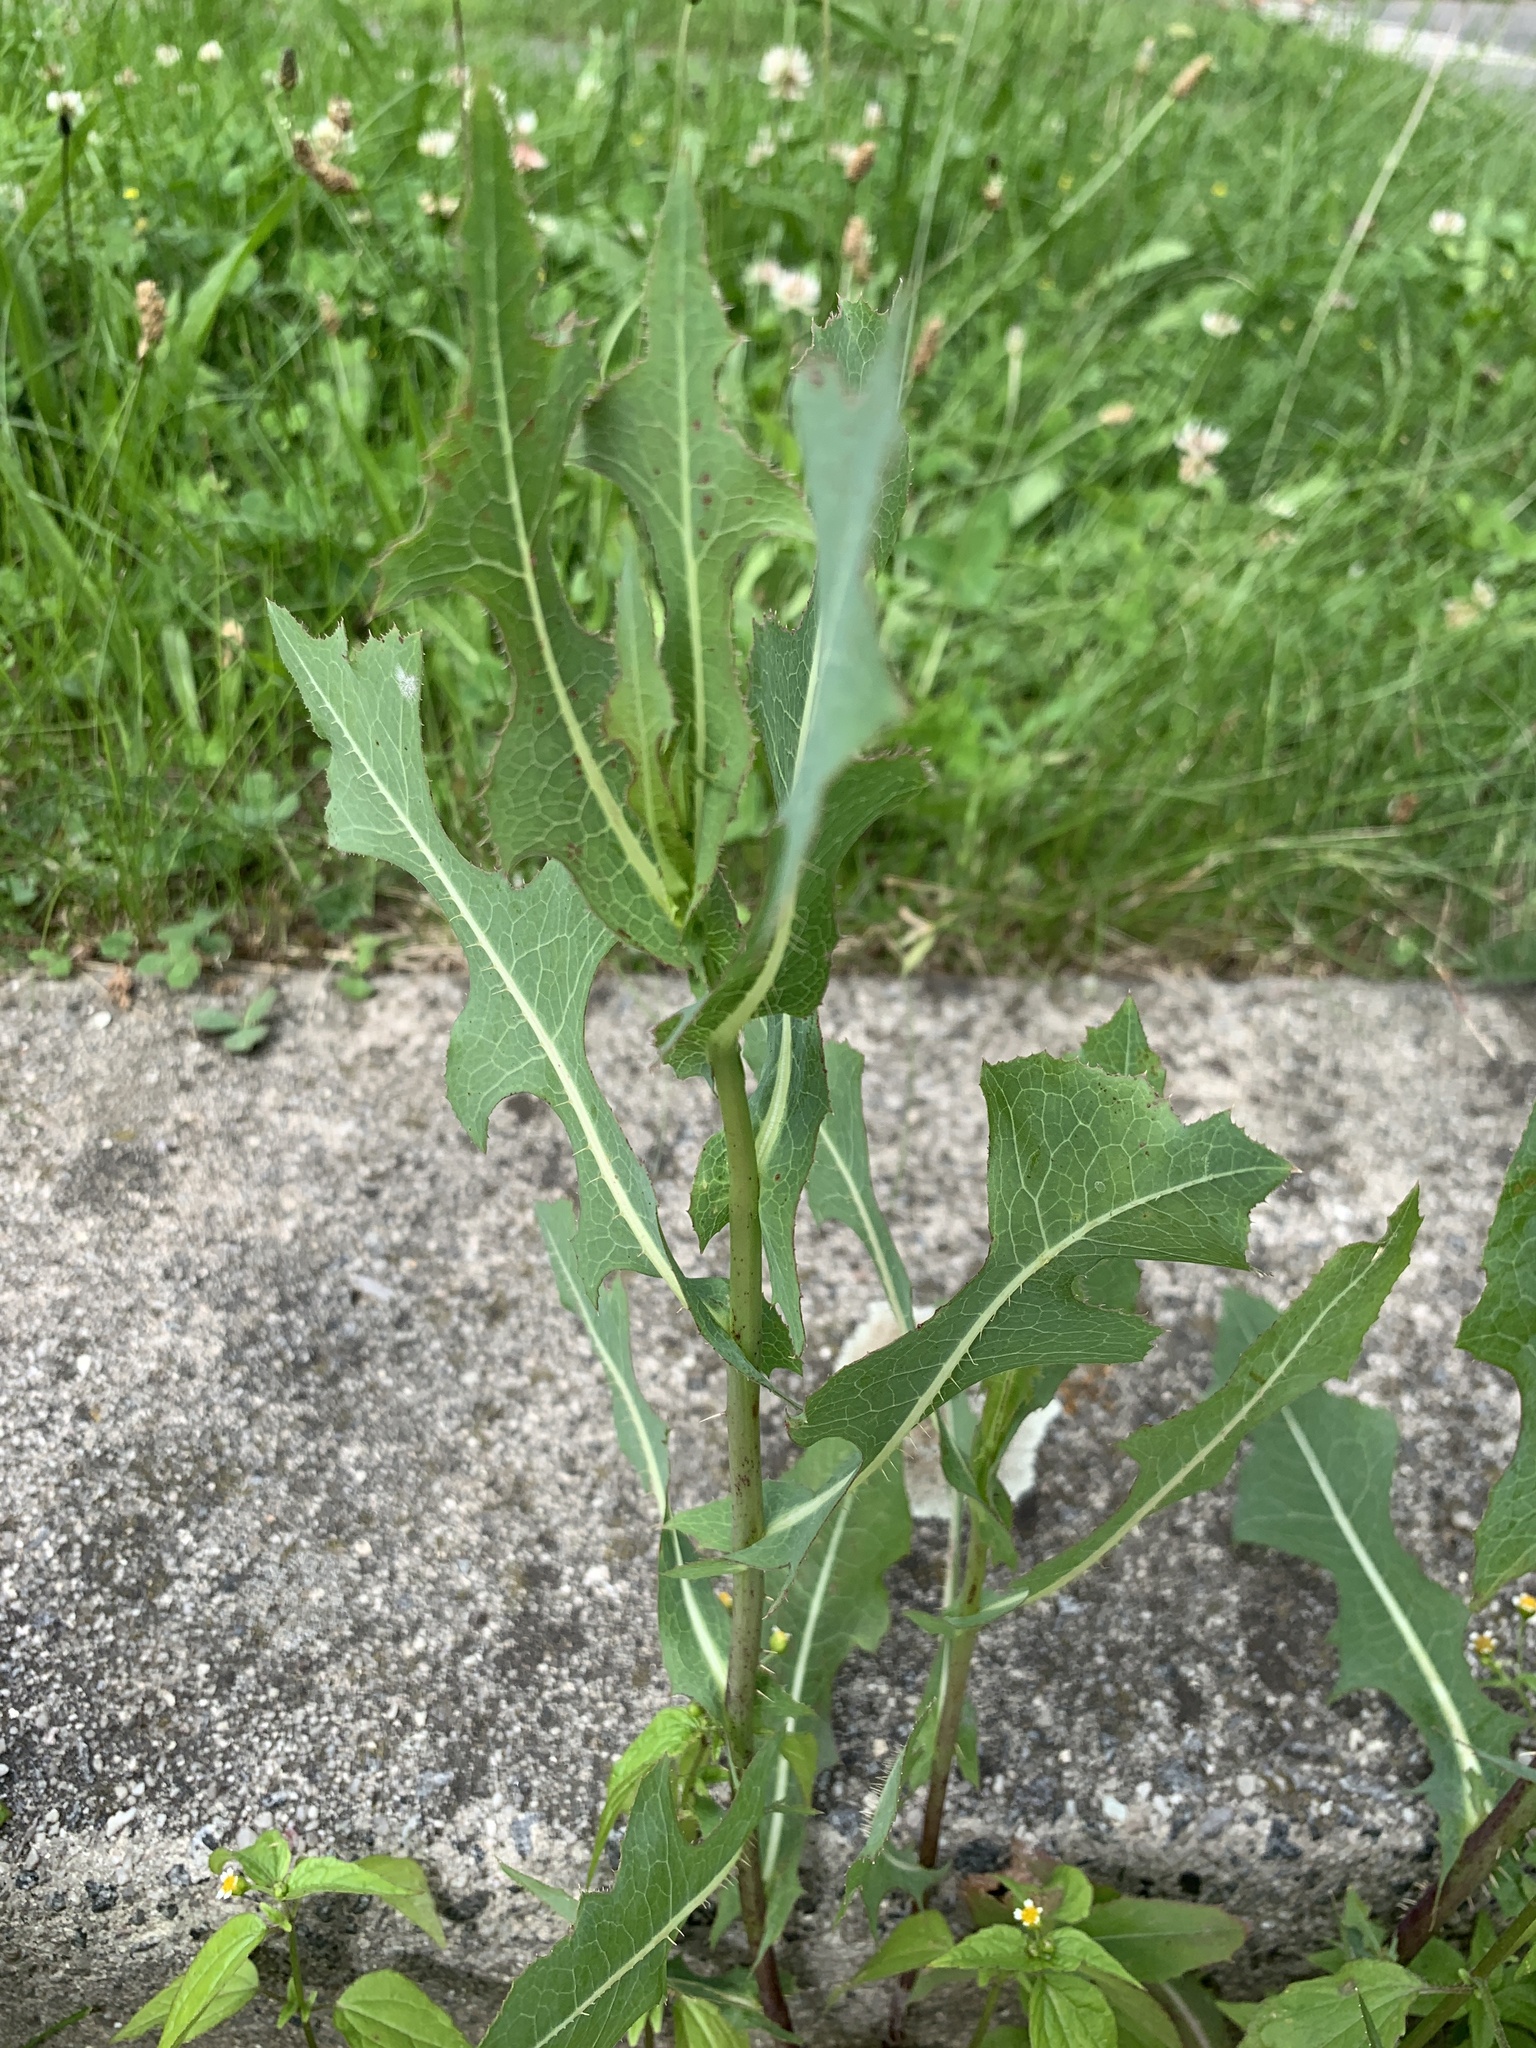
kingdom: Plantae
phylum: Tracheophyta
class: Magnoliopsida
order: Asterales
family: Asteraceae
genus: Lactuca
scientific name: Lactuca serriola
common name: Prickly lettuce
